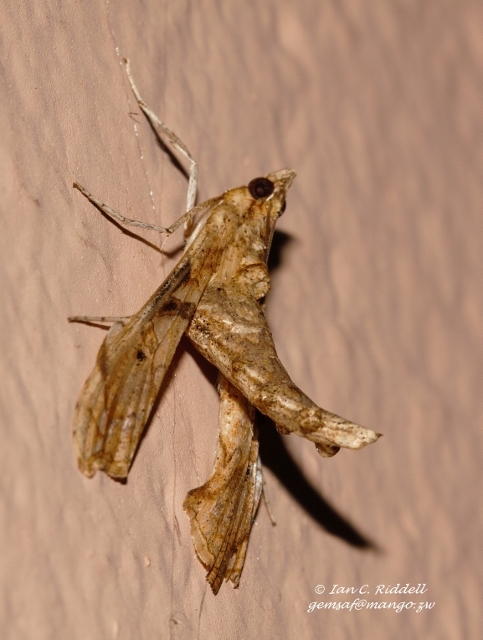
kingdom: Animalia
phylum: Arthropoda
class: Insecta
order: Lepidoptera
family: Crambidae
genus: Terastia
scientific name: Terastia africana
